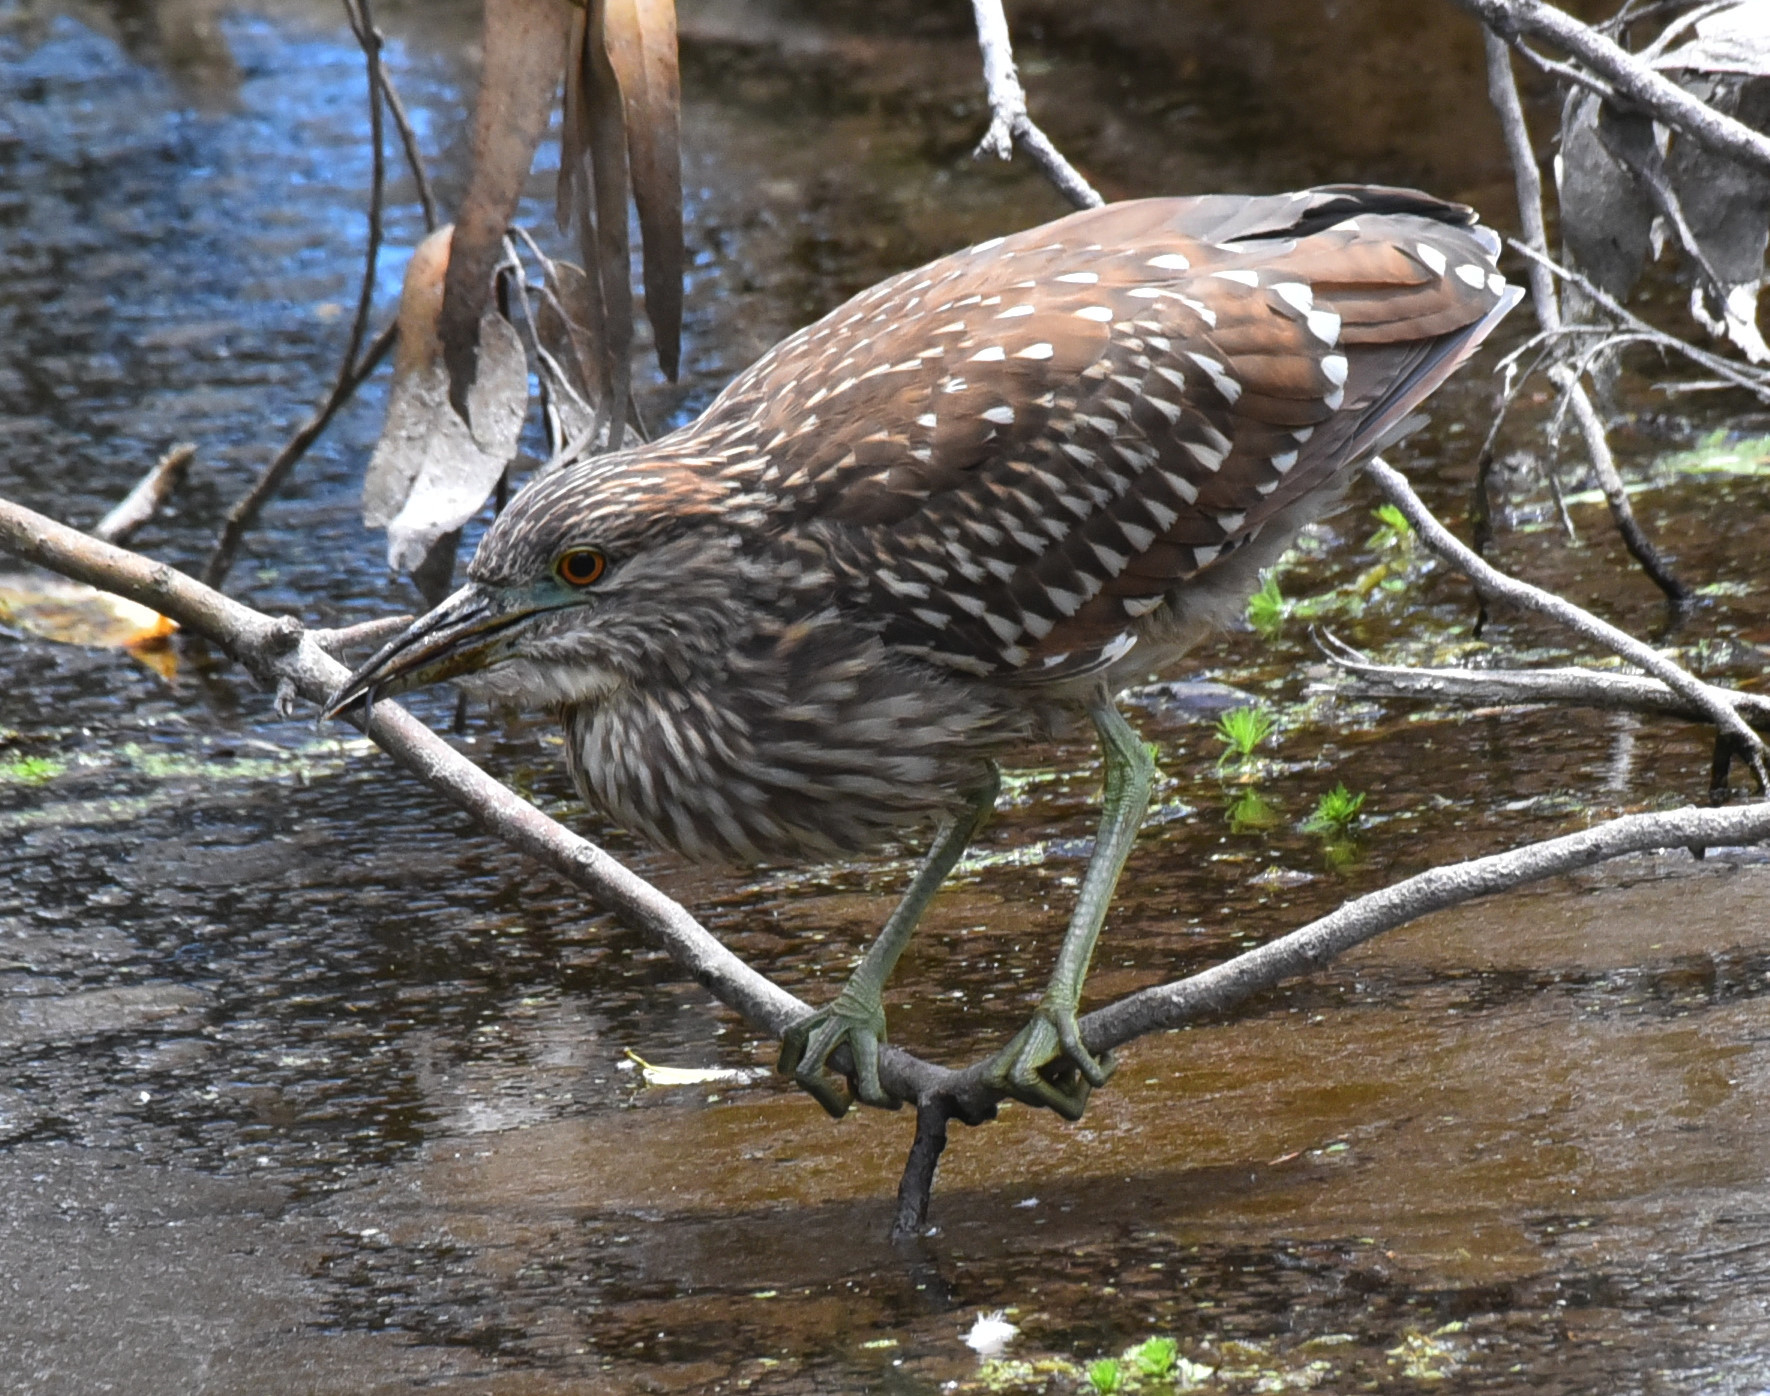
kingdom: Animalia
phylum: Chordata
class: Aves
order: Pelecaniformes
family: Ardeidae
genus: Nycticorax
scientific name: Nycticorax nycticorax
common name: Black-crowned night heron
